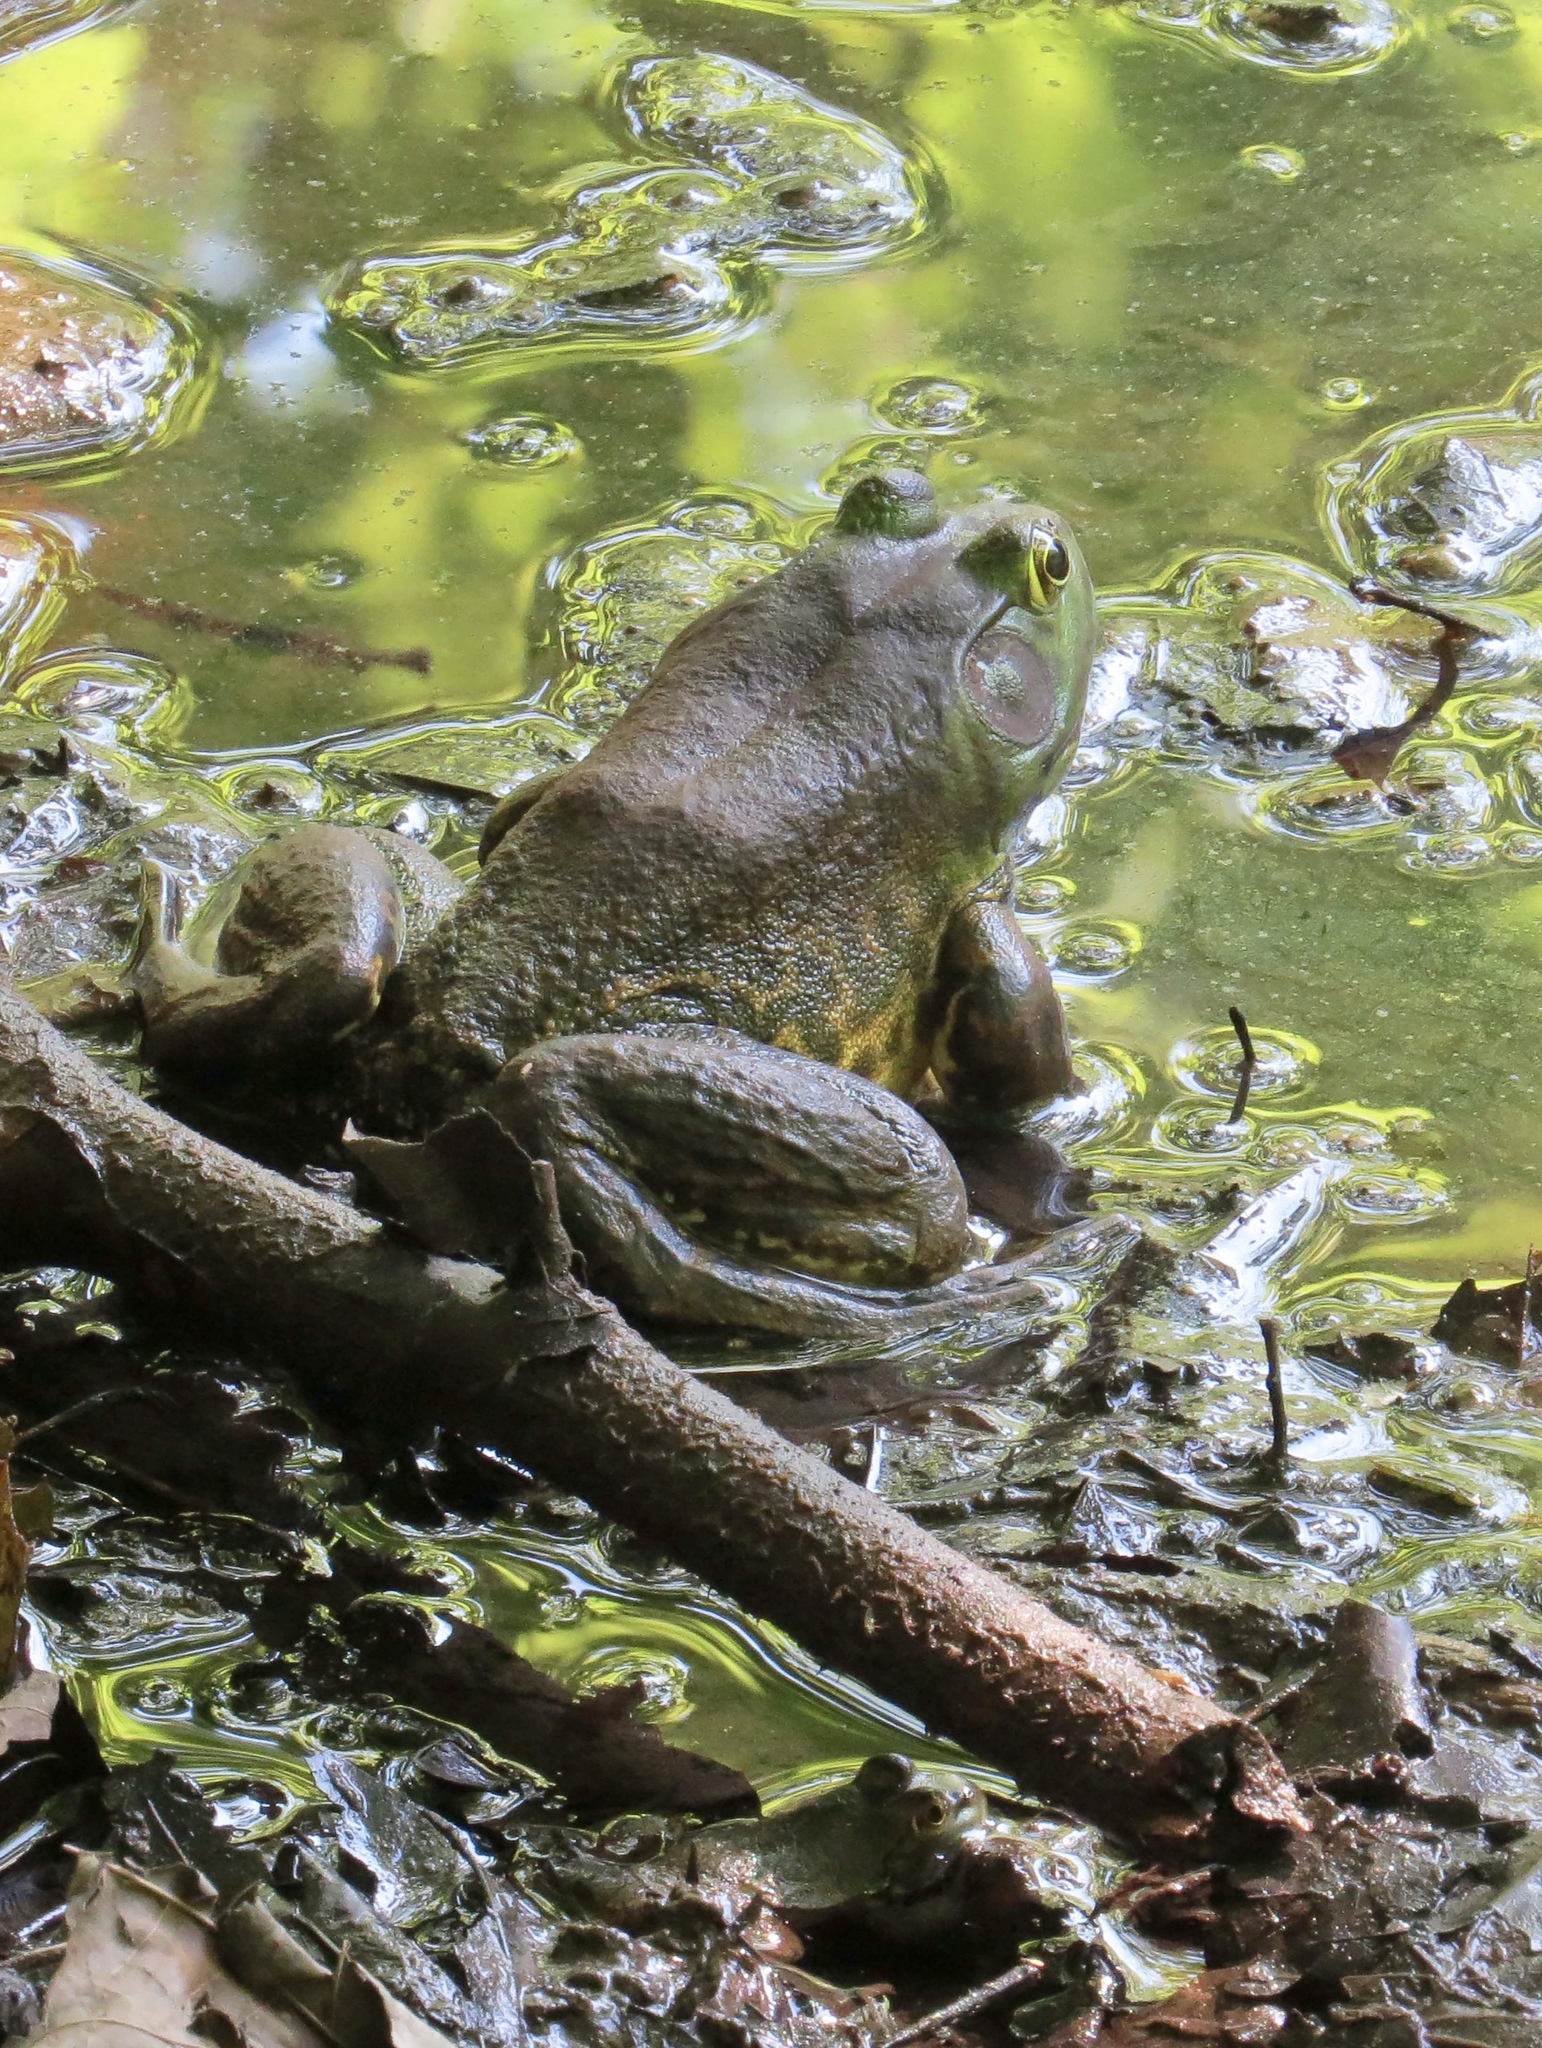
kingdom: Animalia
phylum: Chordata
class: Amphibia
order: Anura
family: Ranidae
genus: Lithobates
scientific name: Lithobates catesbeianus
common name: American bullfrog
